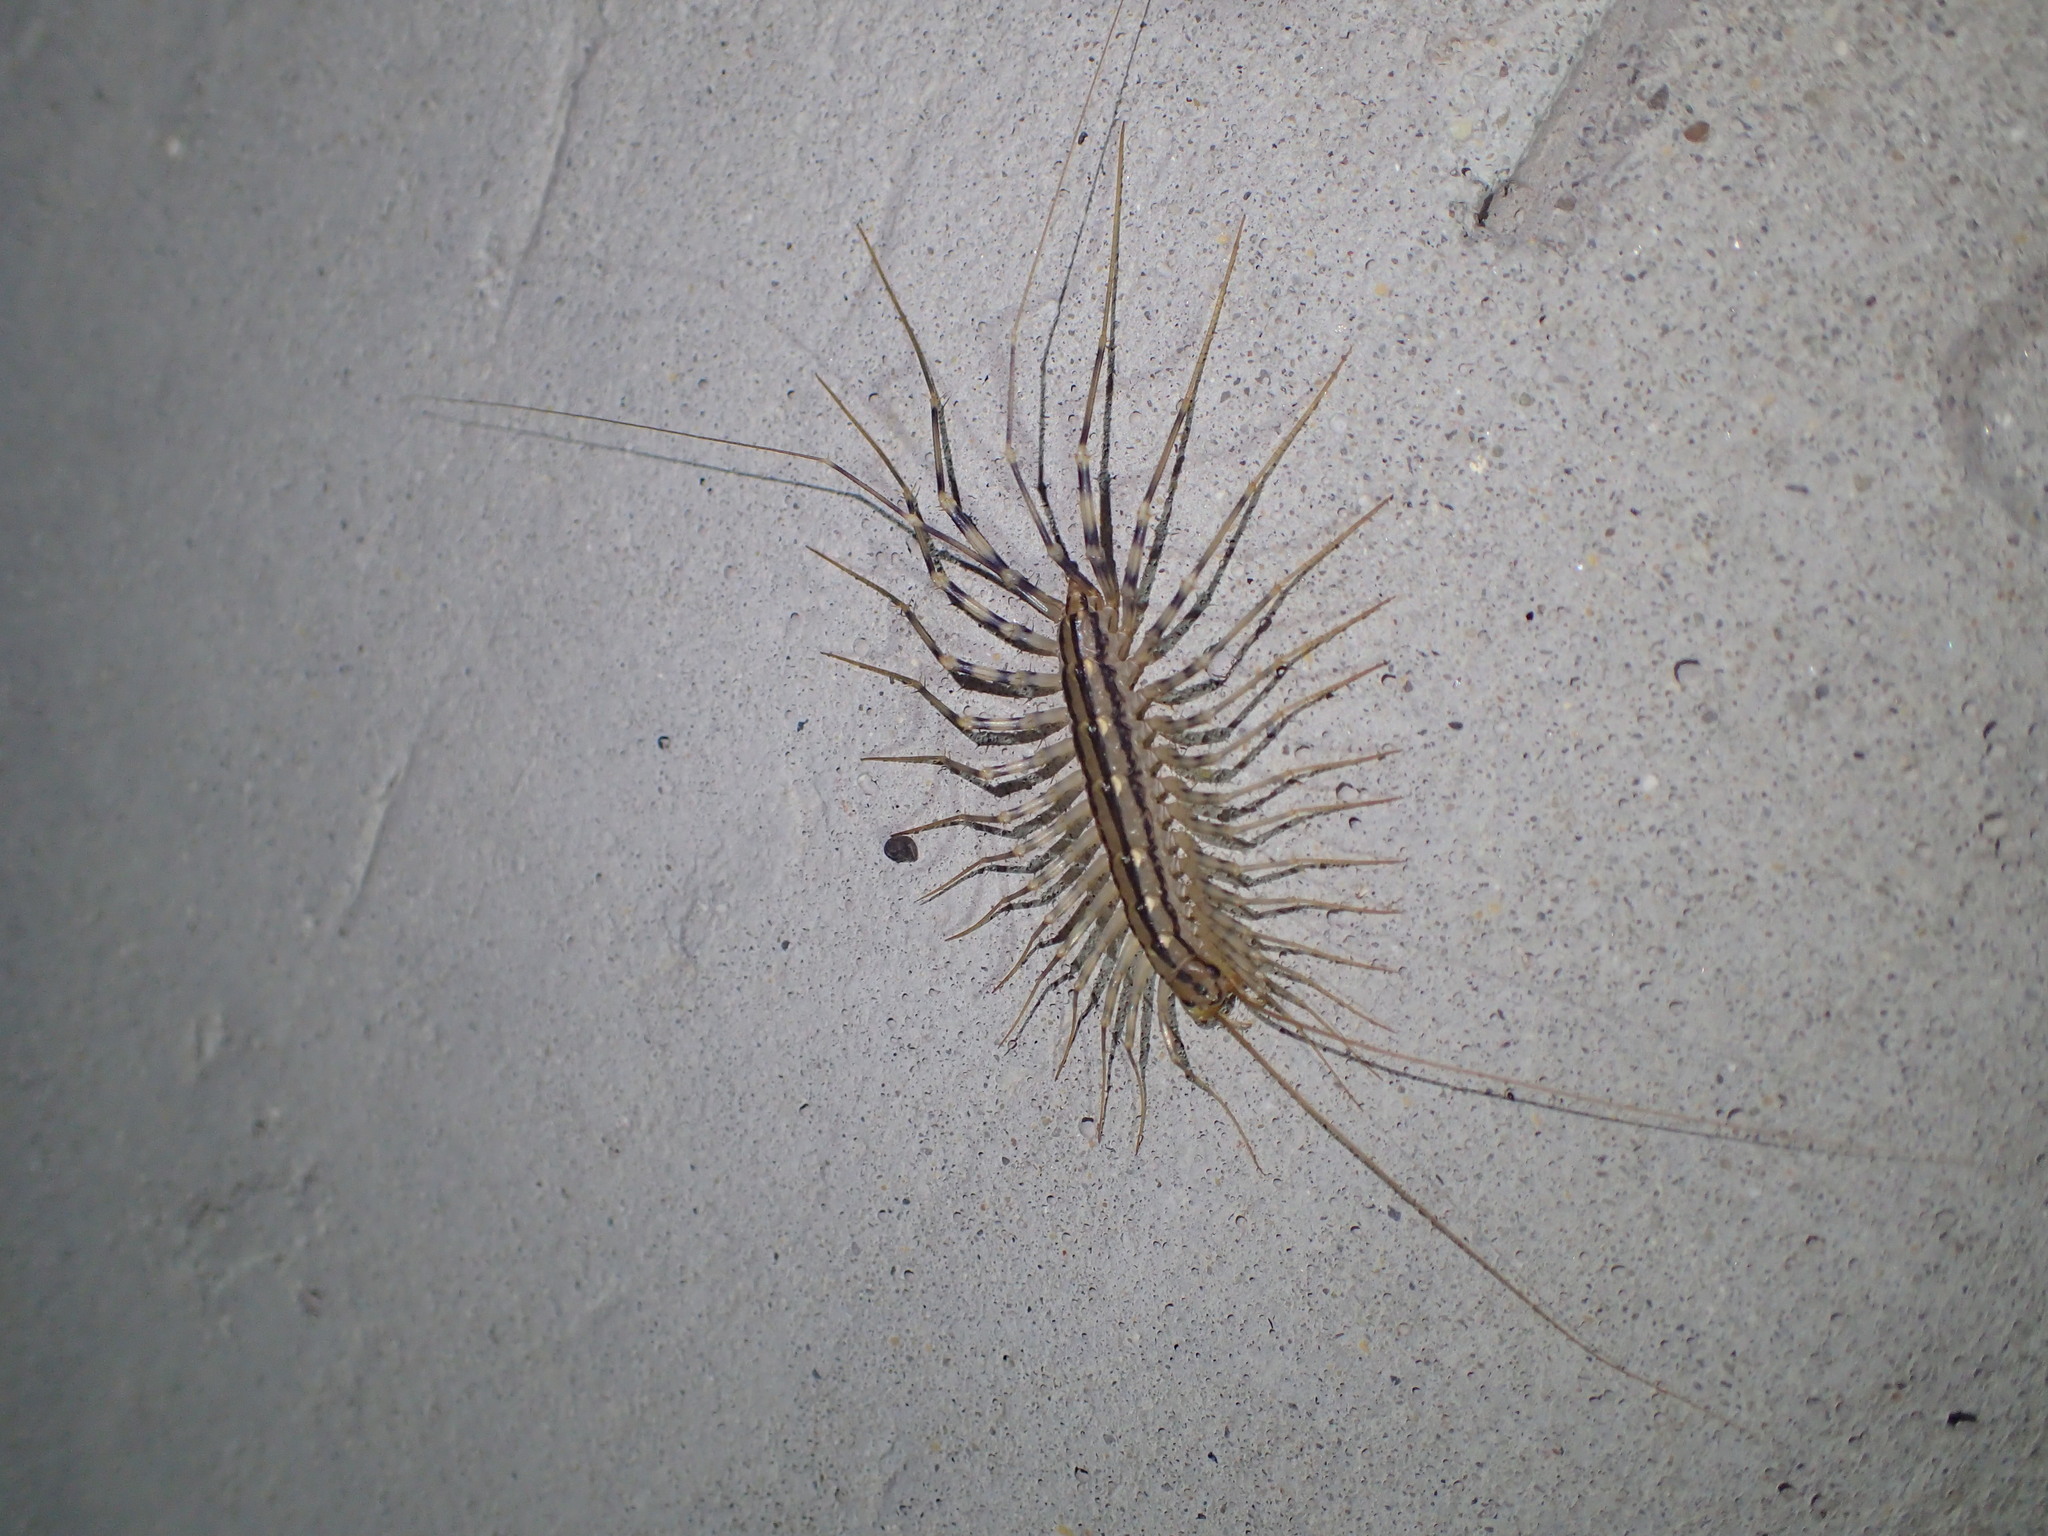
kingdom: Animalia
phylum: Arthropoda
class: Chilopoda
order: Scutigeromorpha
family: Scutigeridae
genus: Scutigera
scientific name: Scutigera coleoptrata
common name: House centipede
